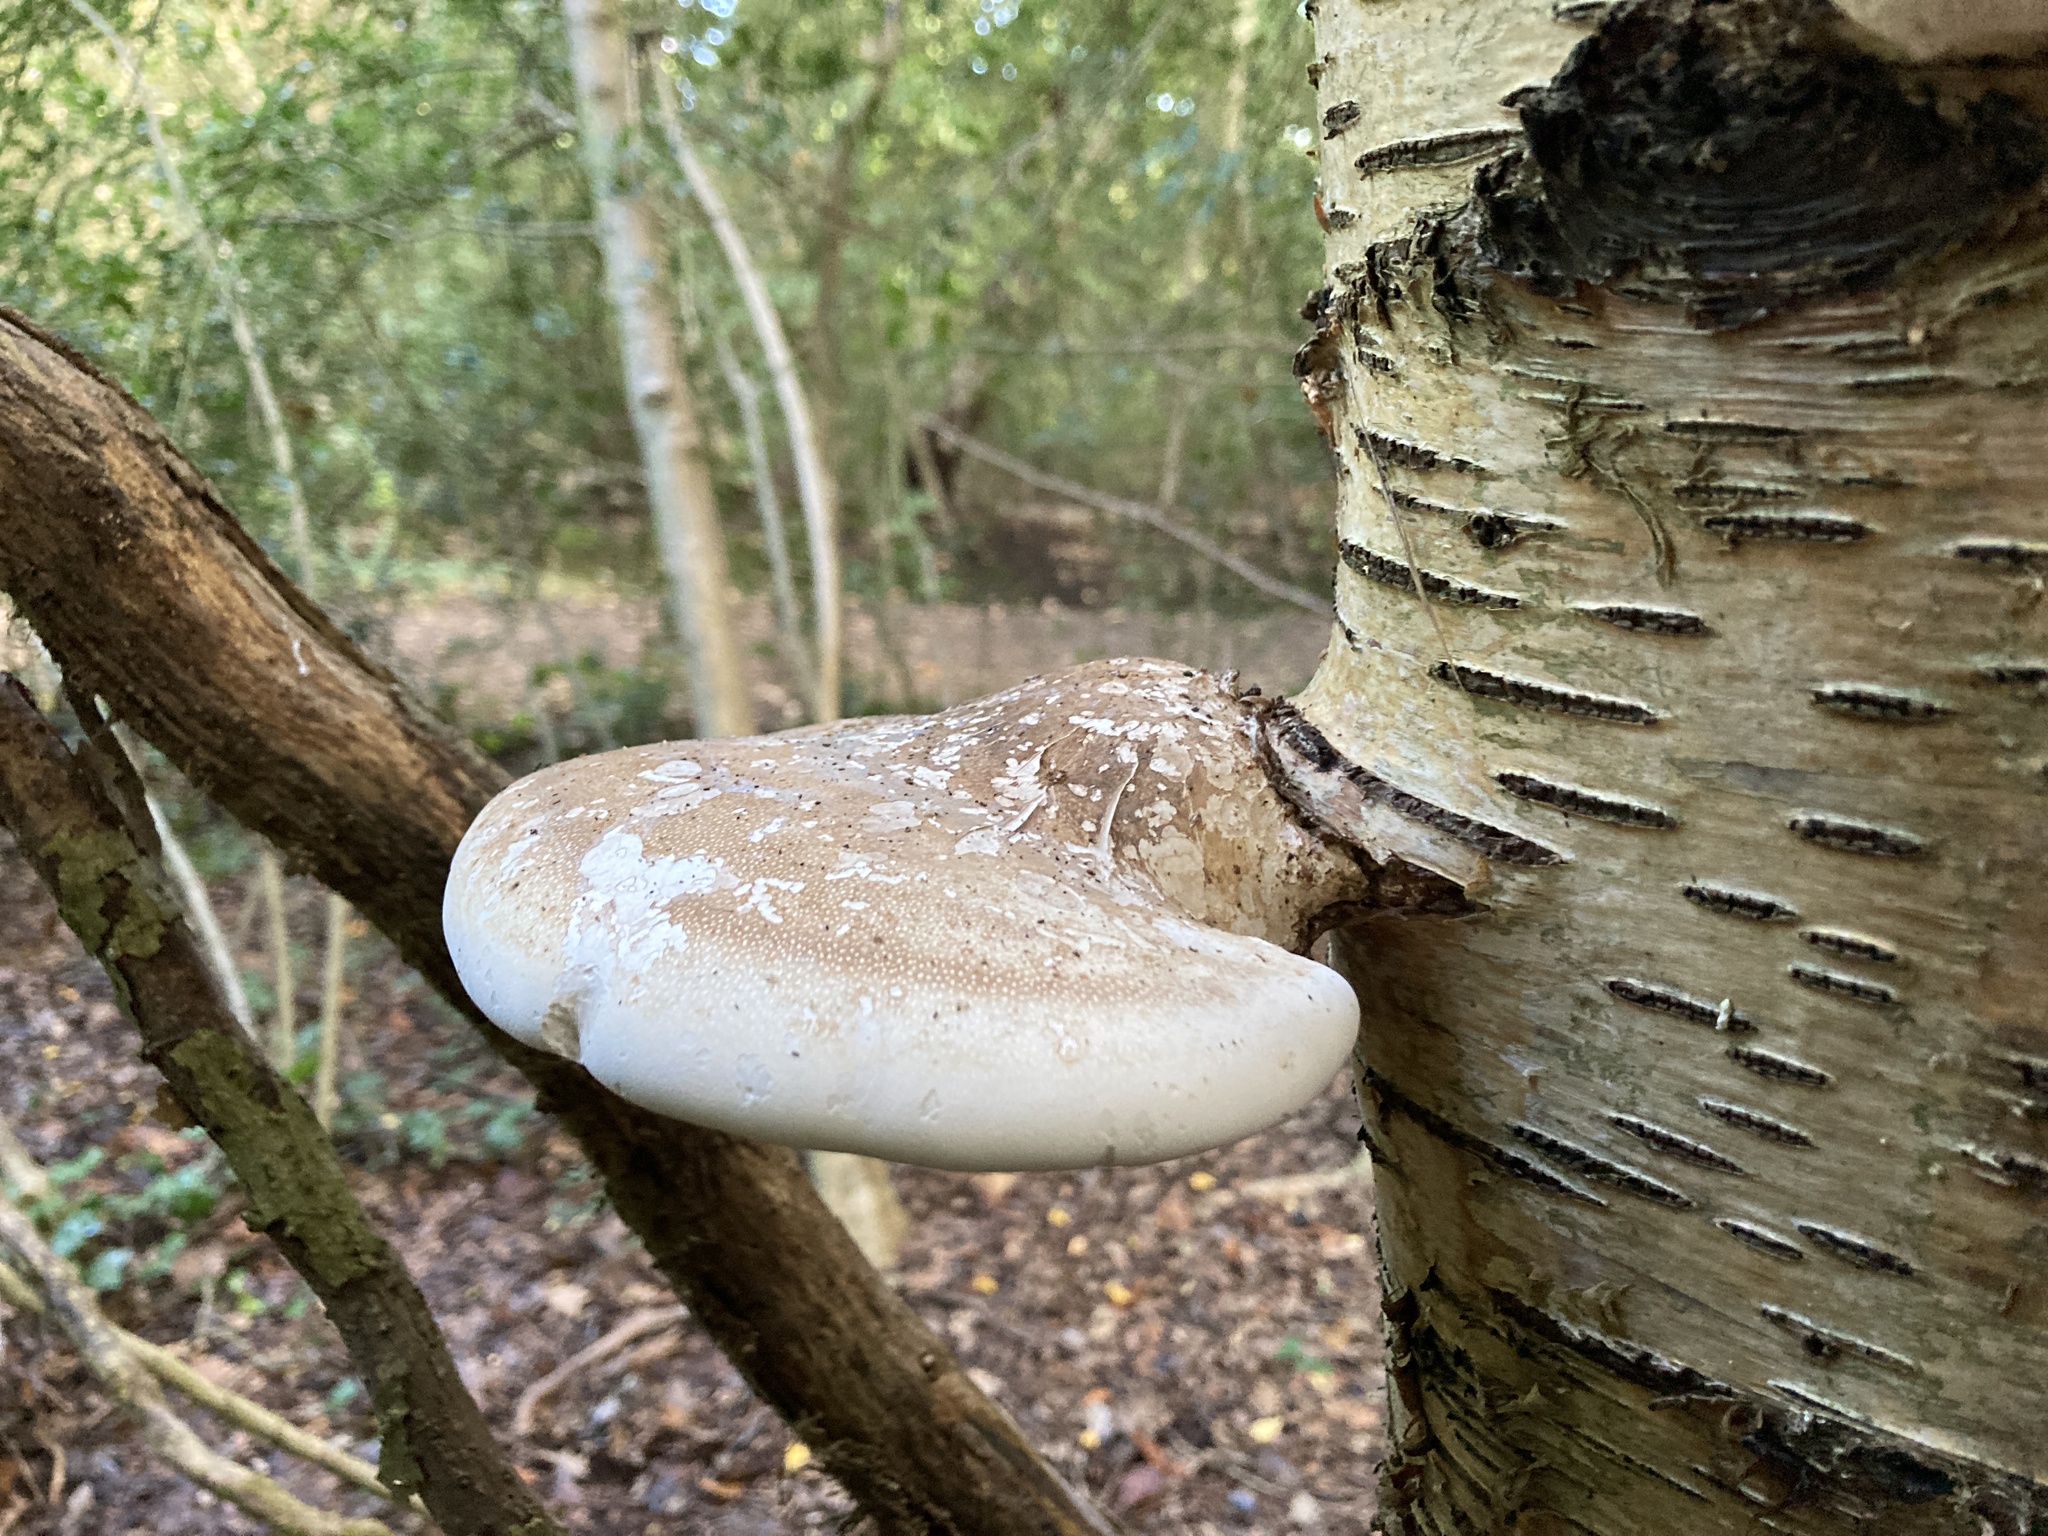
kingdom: Fungi
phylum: Basidiomycota
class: Agaricomycetes
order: Polyporales
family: Fomitopsidaceae
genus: Fomitopsis
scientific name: Fomitopsis betulina
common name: Birch polypore
